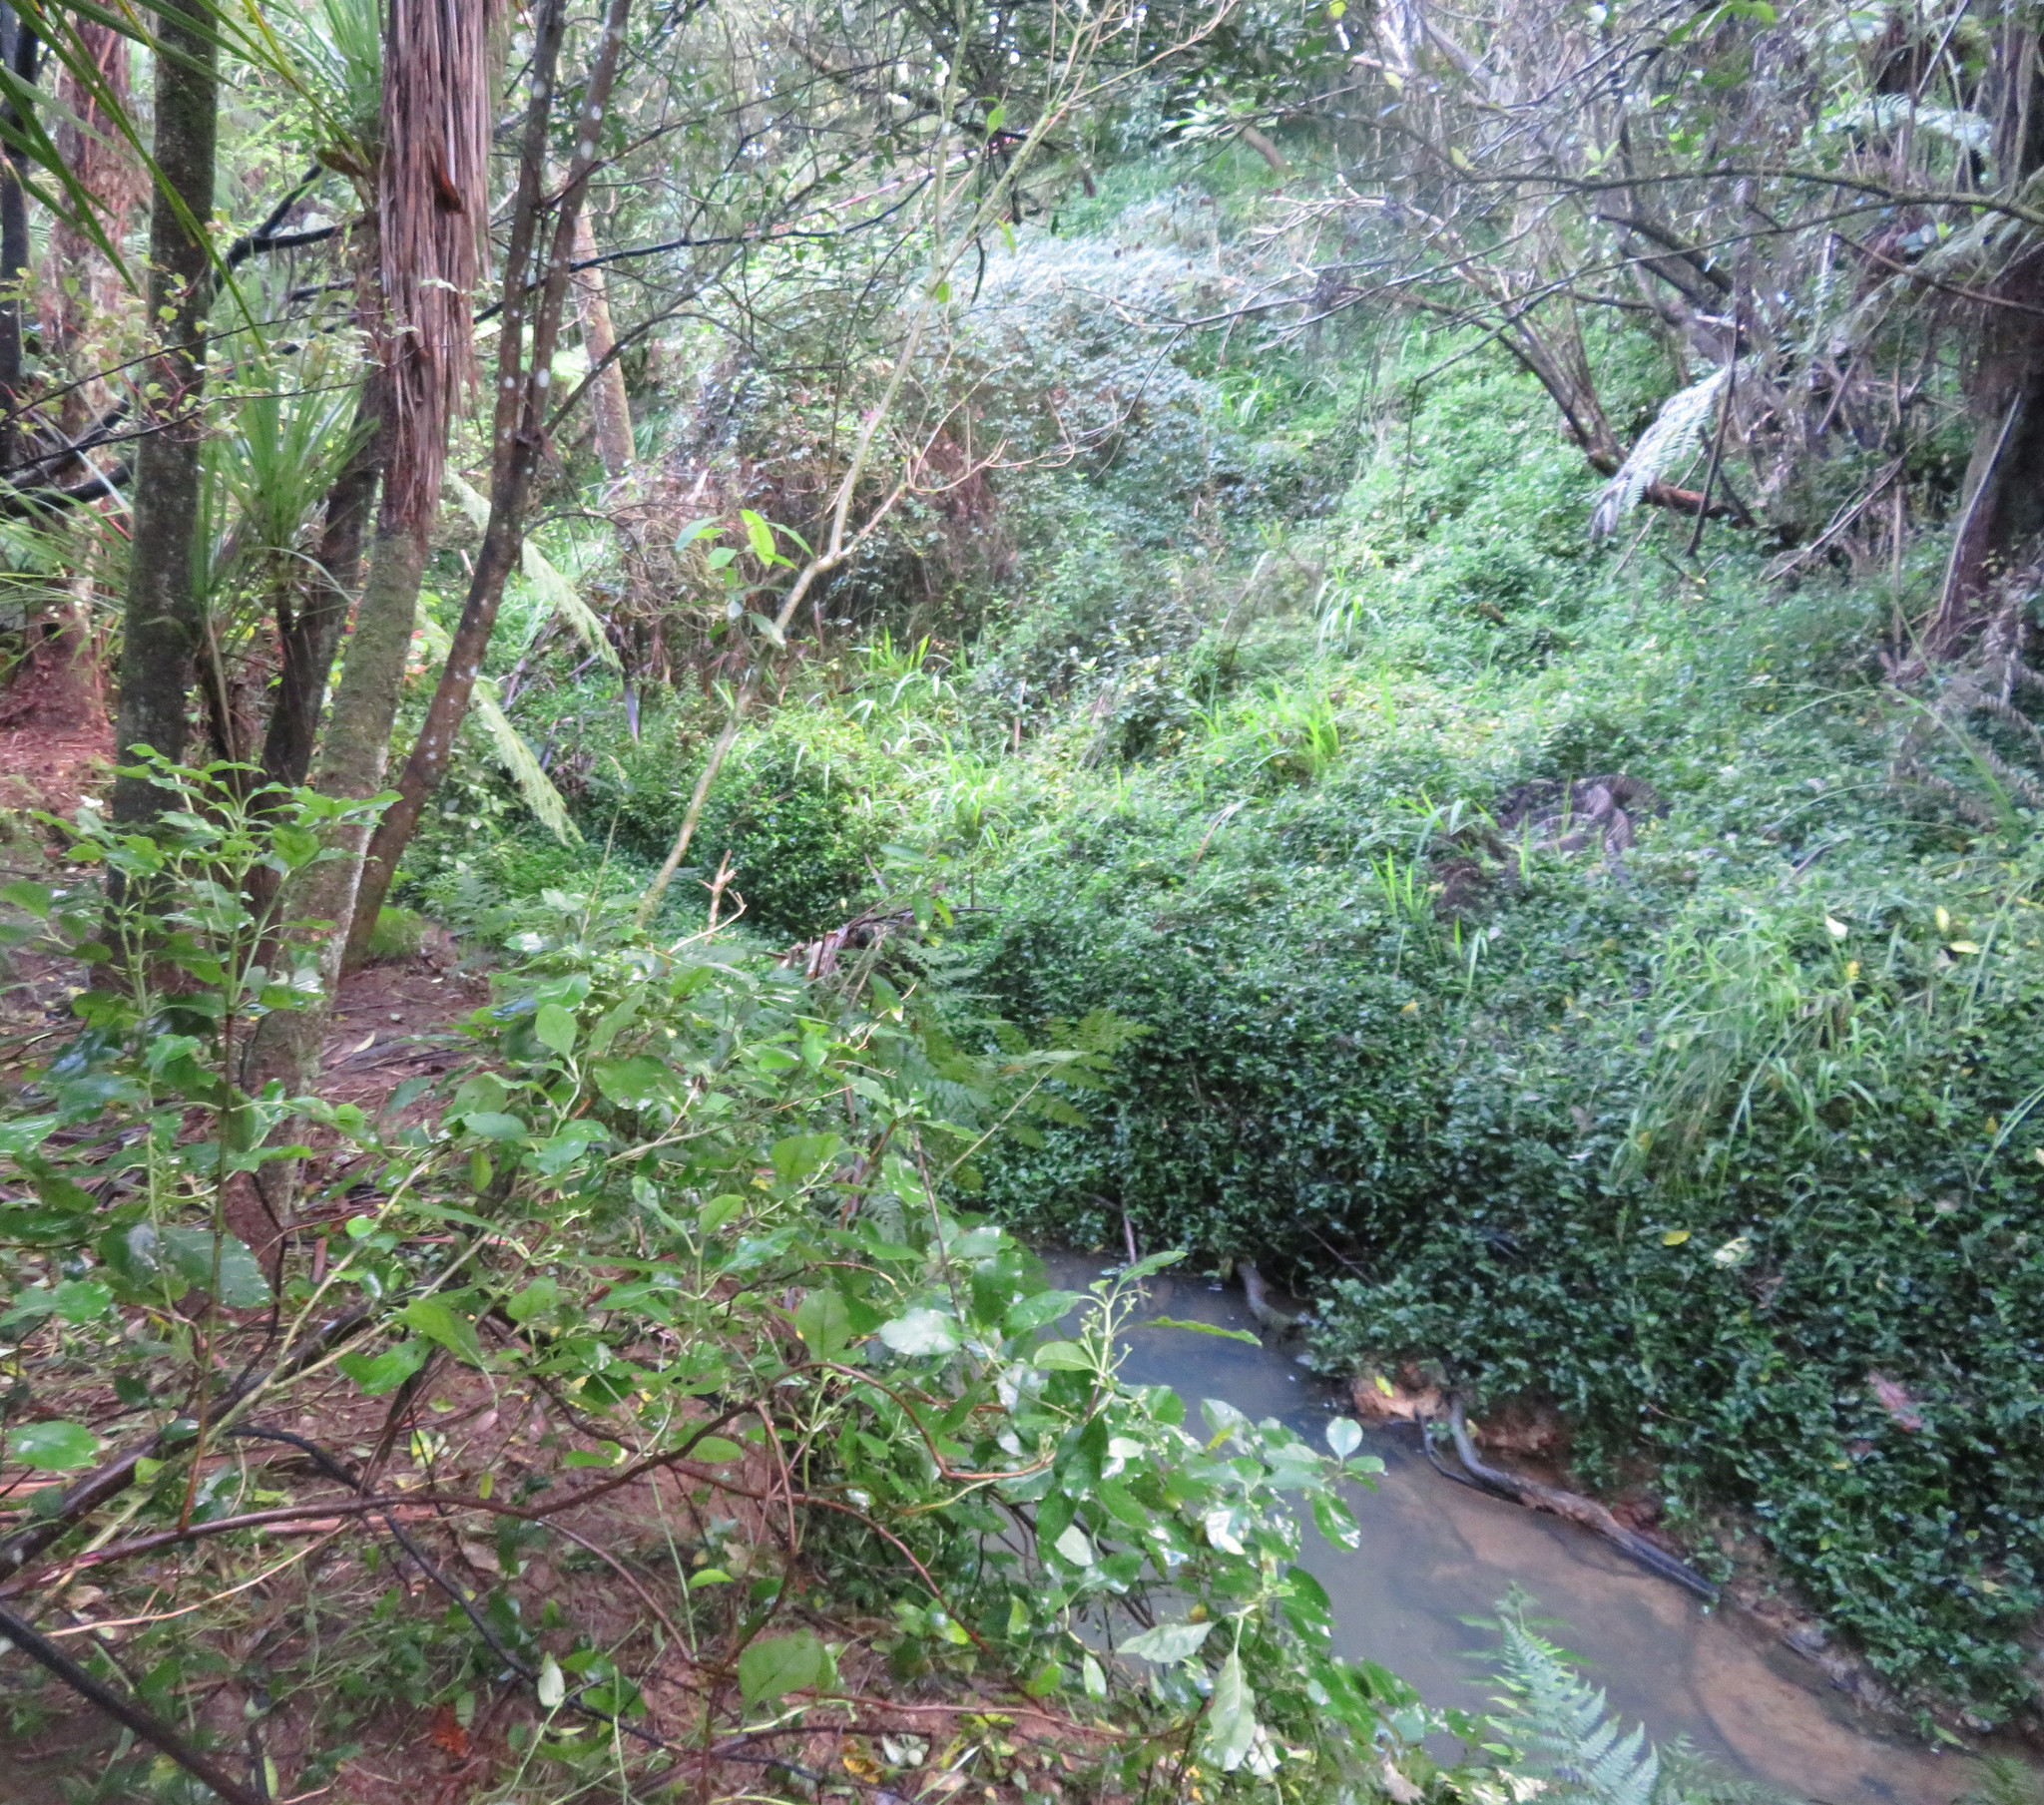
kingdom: Plantae
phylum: Tracheophyta
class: Liliopsida
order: Asparagales
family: Iridaceae
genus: Crocosmia
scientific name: Crocosmia crocosmiiflora
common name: Montbretia
